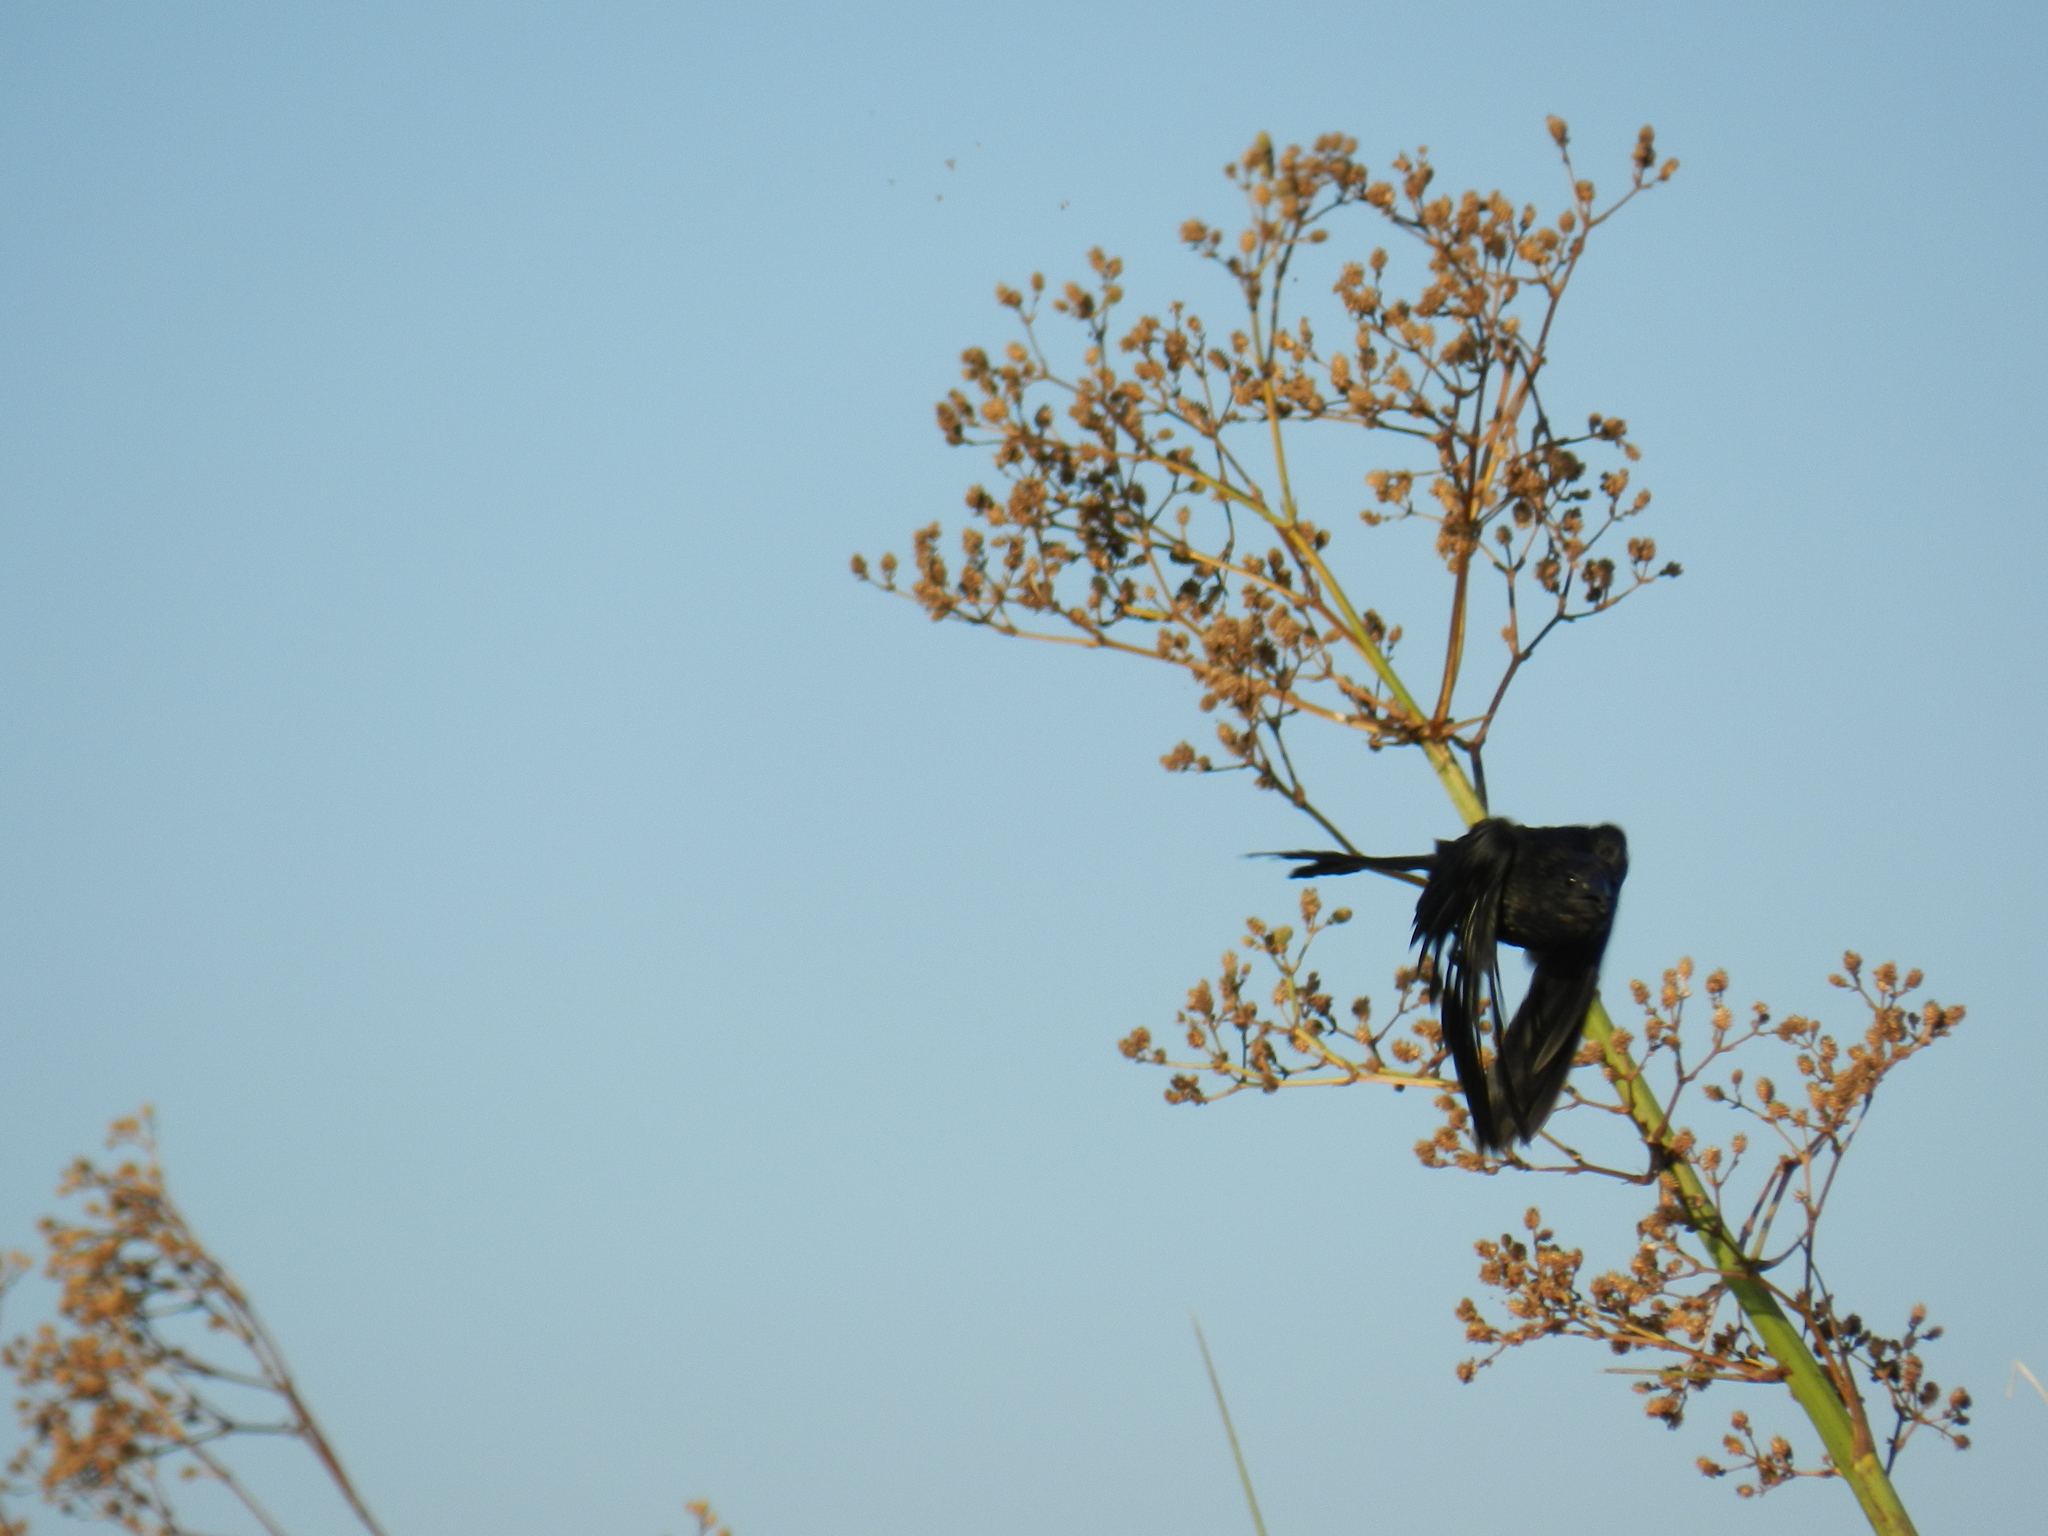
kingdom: Animalia
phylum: Chordata
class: Aves
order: Cuculiformes
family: Cuculidae
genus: Crotophaga
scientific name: Crotophaga ani
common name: Smooth-billed ani
